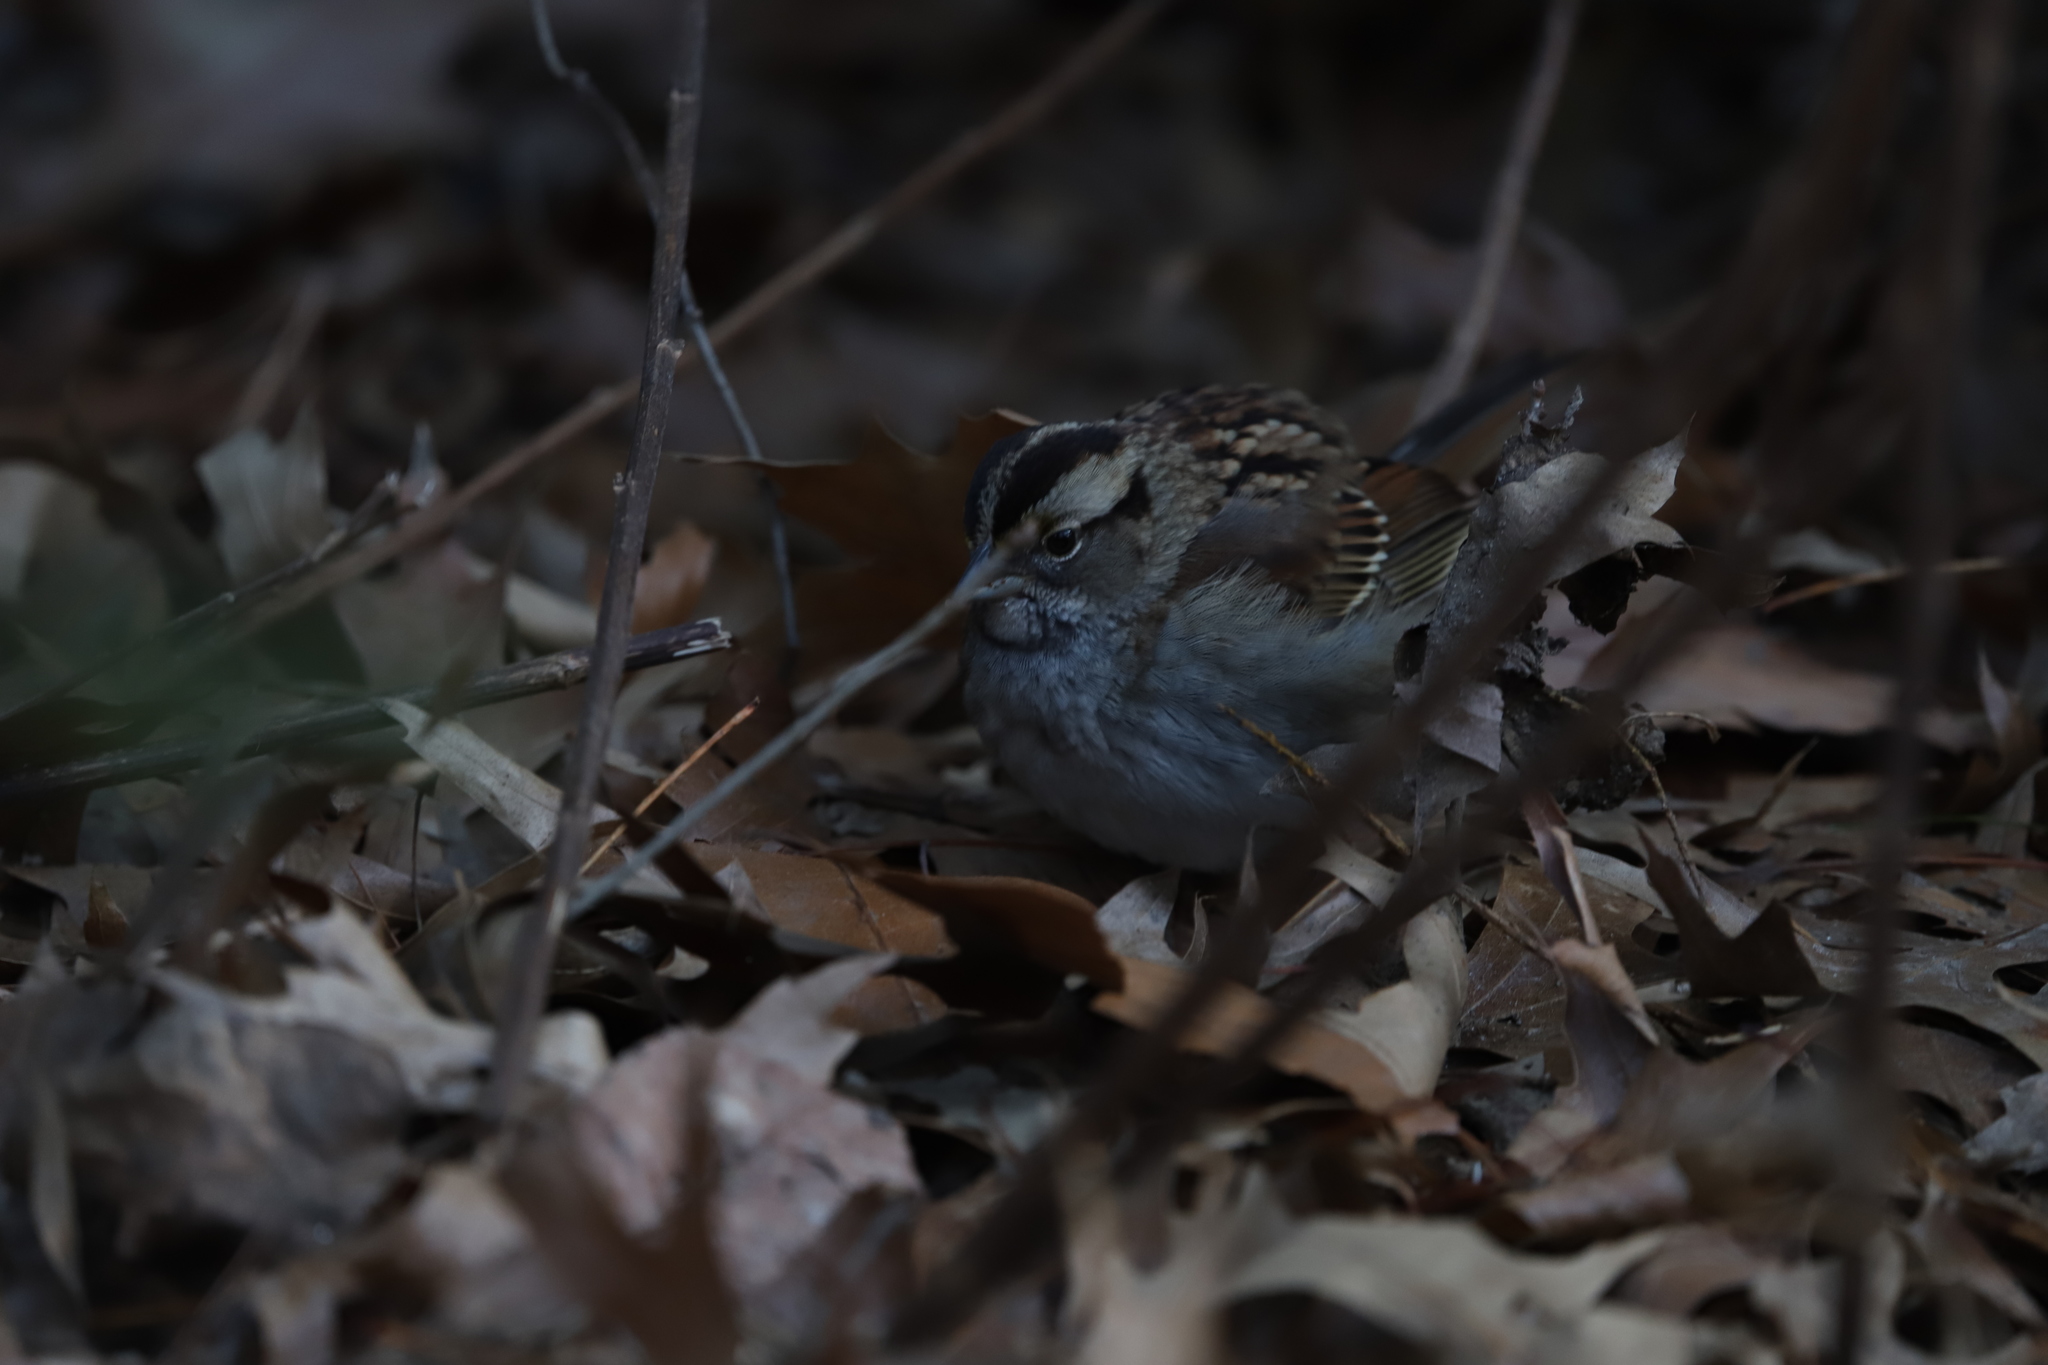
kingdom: Animalia
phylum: Chordata
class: Aves
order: Passeriformes
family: Passerellidae
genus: Zonotrichia
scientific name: Zonotrichia albicollis
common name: White-throated sparrow
